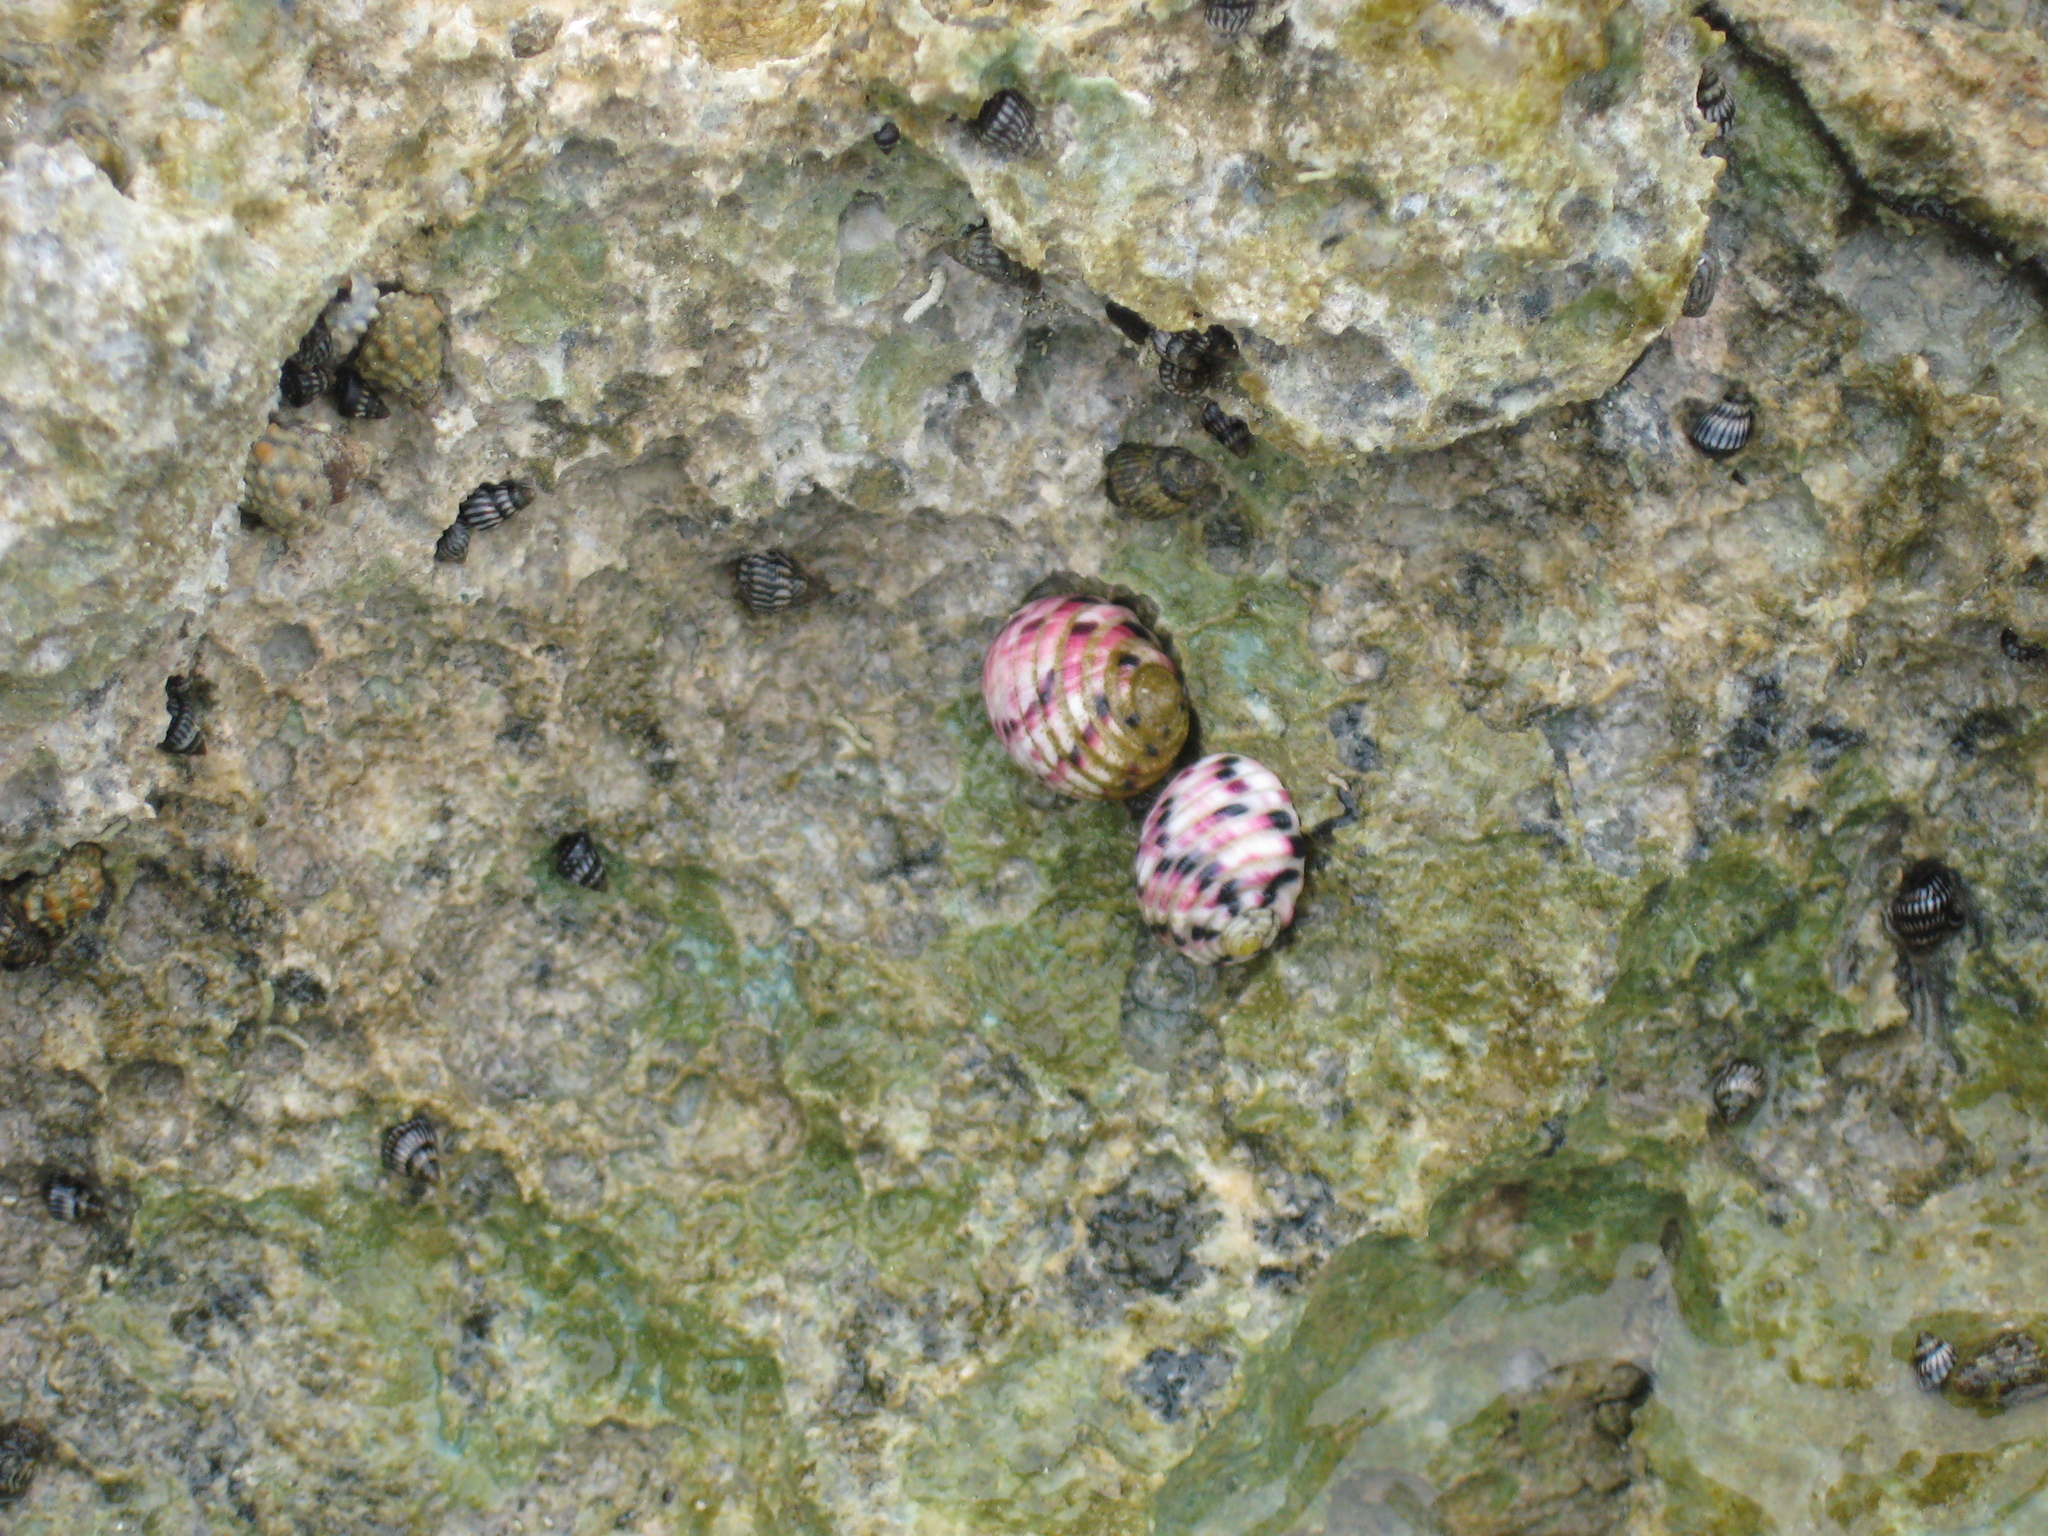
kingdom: Animalia
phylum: Mollusca
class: Gastropoda
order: Cycloneritida
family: Neritidae
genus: Nerita
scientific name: Nerita versicolor
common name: Four-tooth nerite
